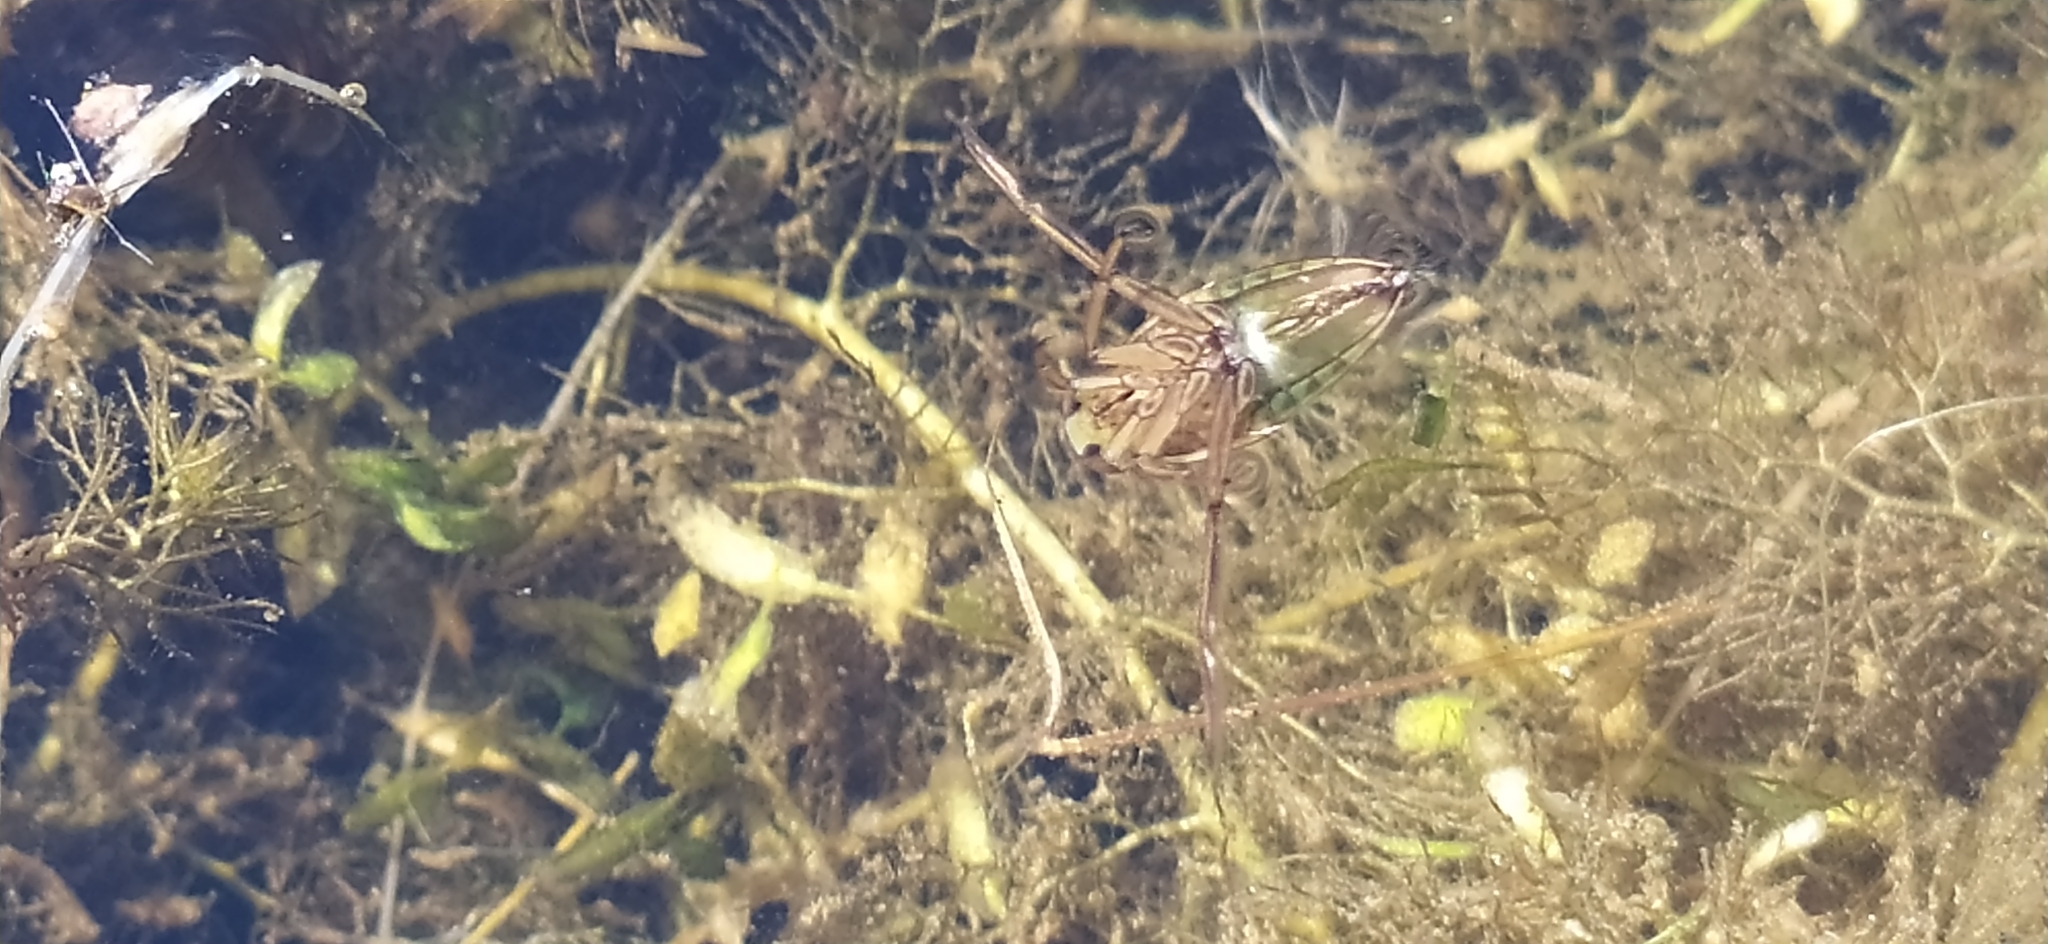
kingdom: Animalia
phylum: Arthropoda
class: Insecta
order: Hemiptera
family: Notonectidae
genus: Notonecta
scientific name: Notonecta
